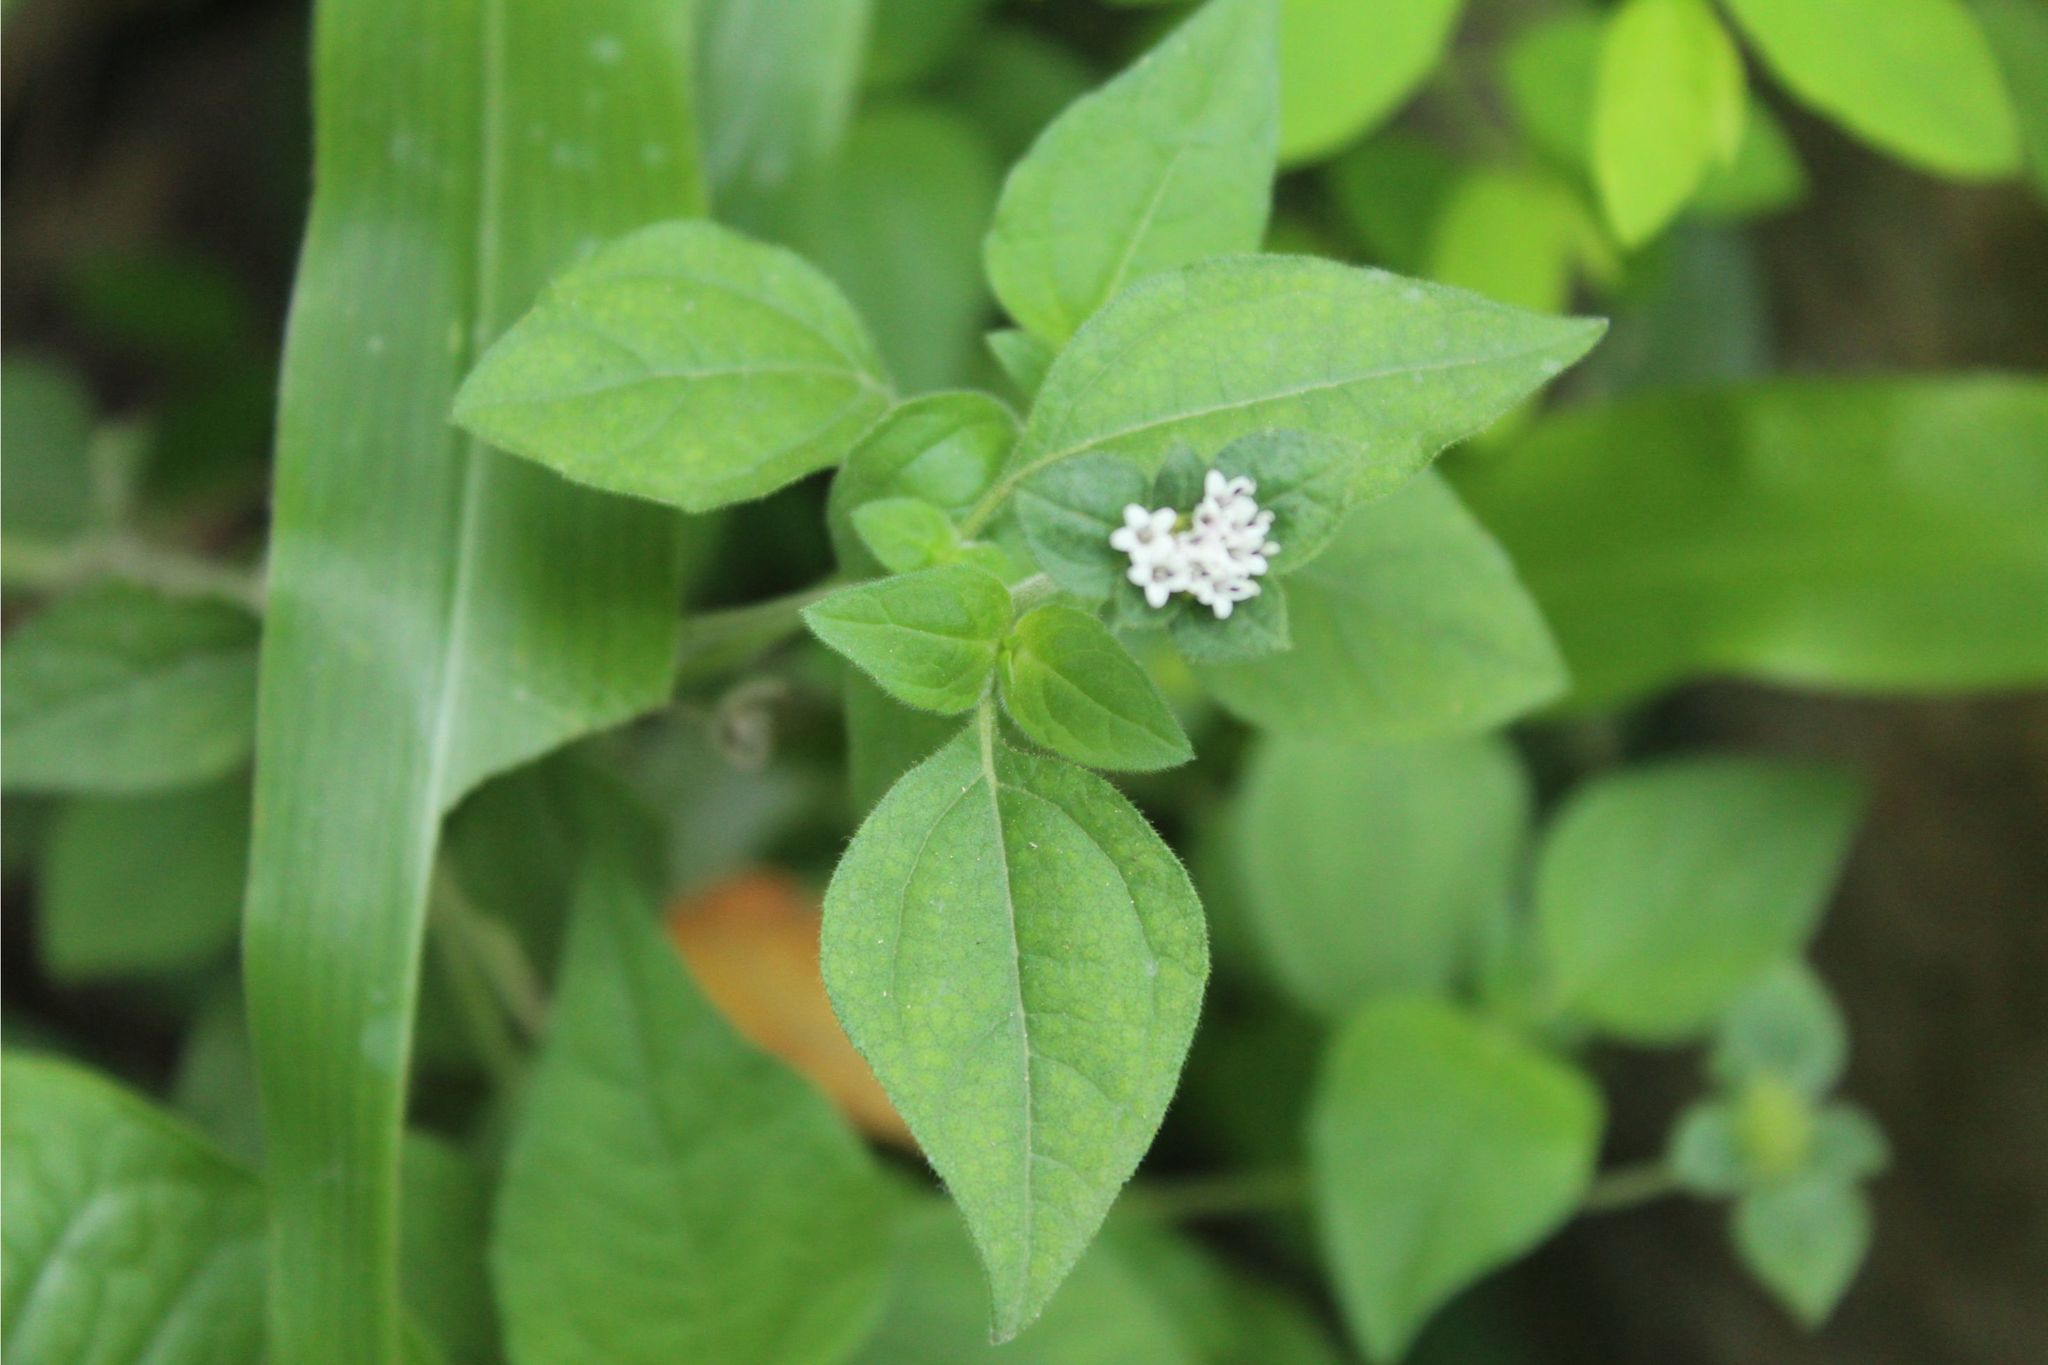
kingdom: Plantae
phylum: Tracheophyta
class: Magnoliopsida
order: Asterales
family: Asteraceae
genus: Lagascea
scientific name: Lagascea mollis
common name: Silkleaf
